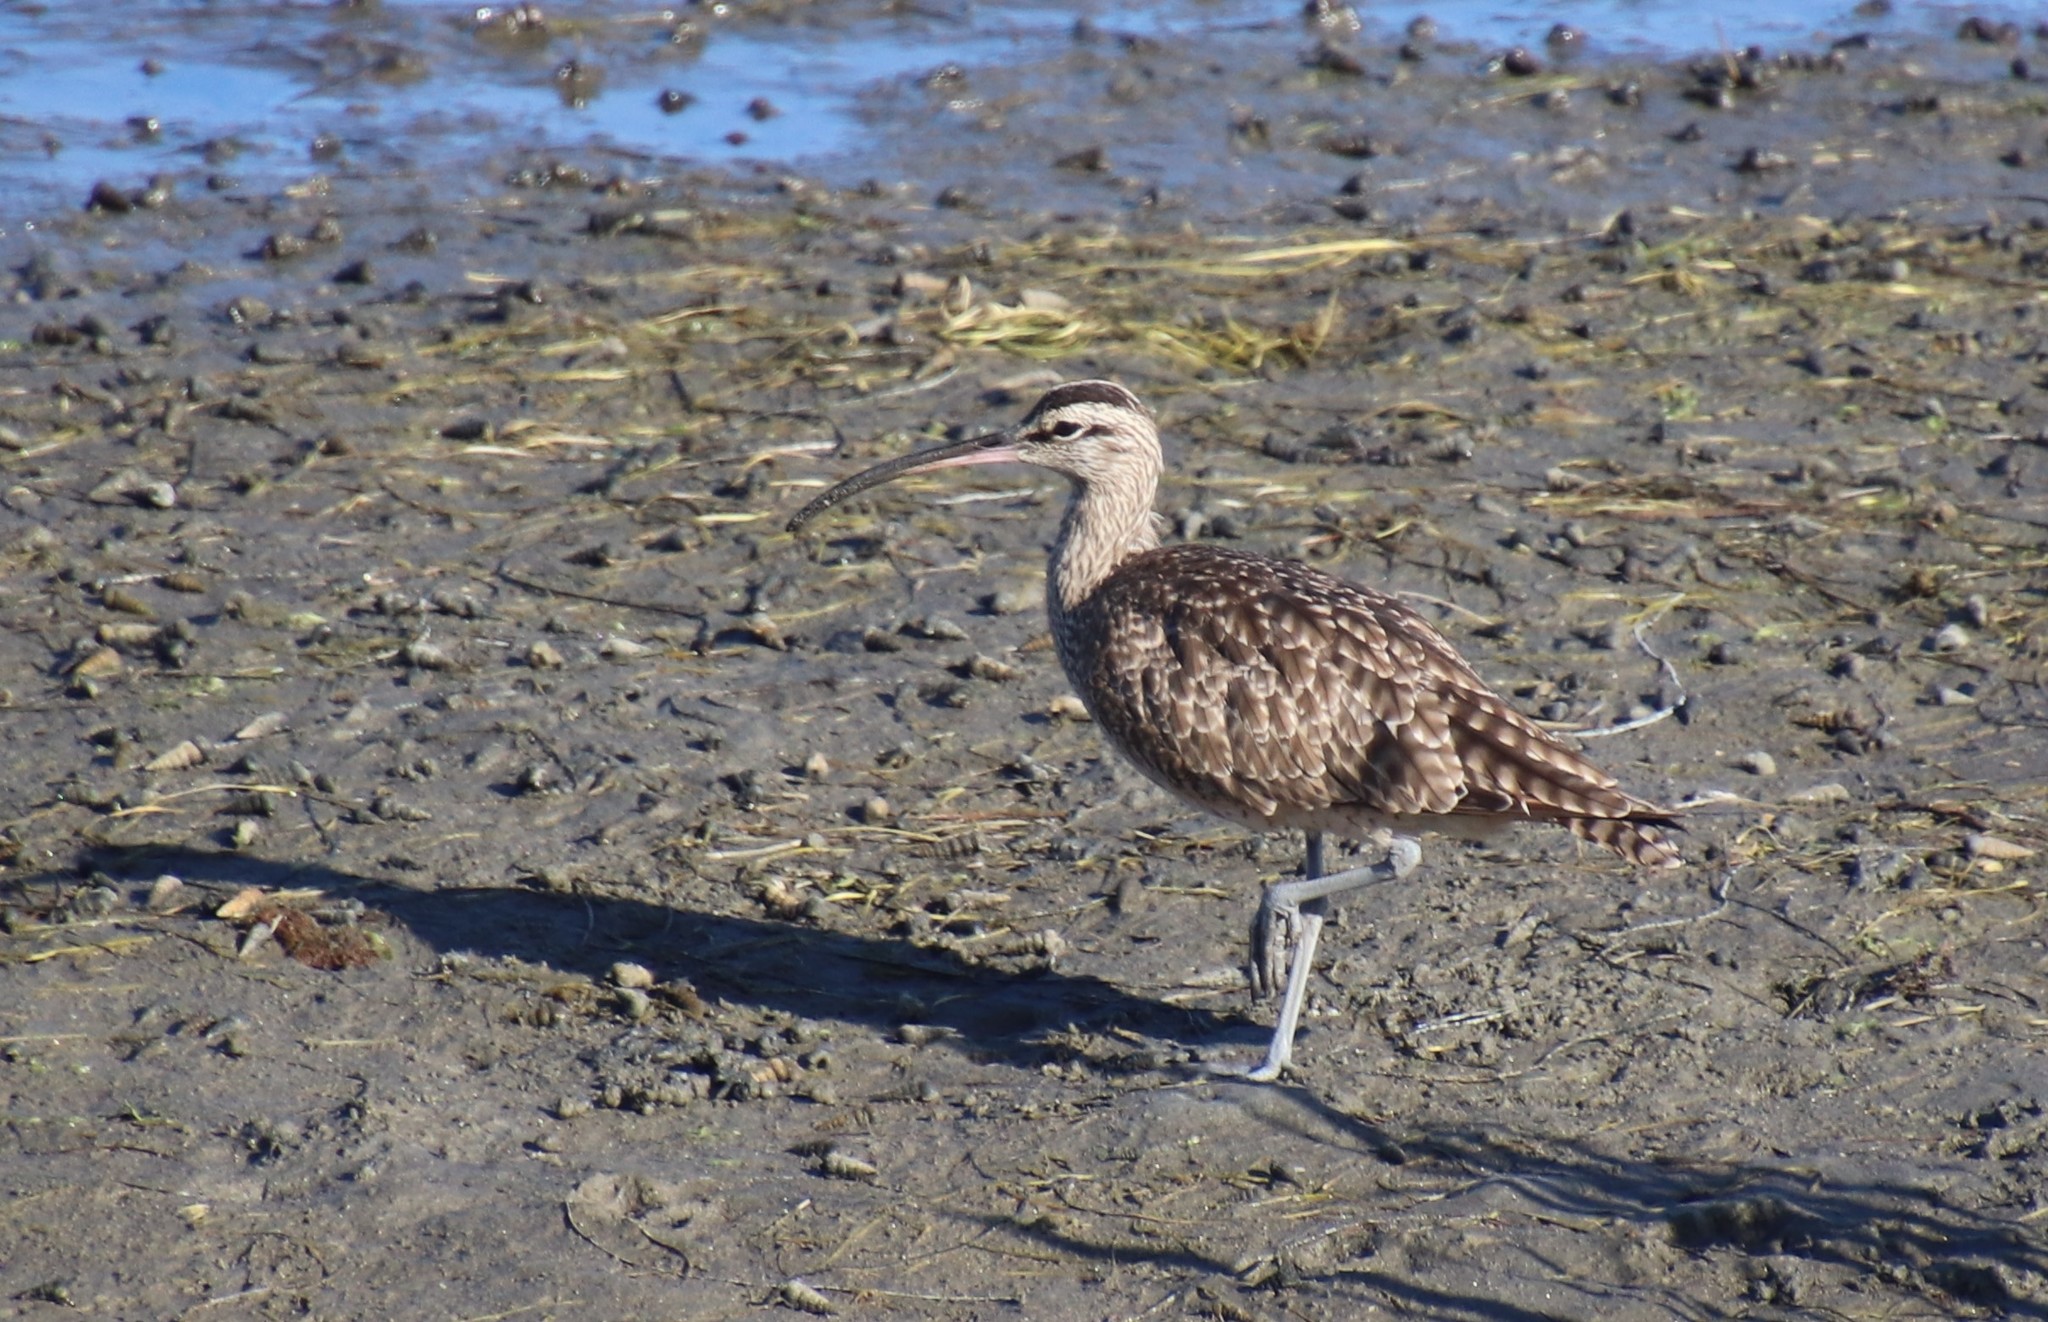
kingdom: Animalia
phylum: Chordata
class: Aves
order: Charadriiformes
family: Scolopacidae
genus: Numenius
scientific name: Numenius phaeopus
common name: Whimbrel
